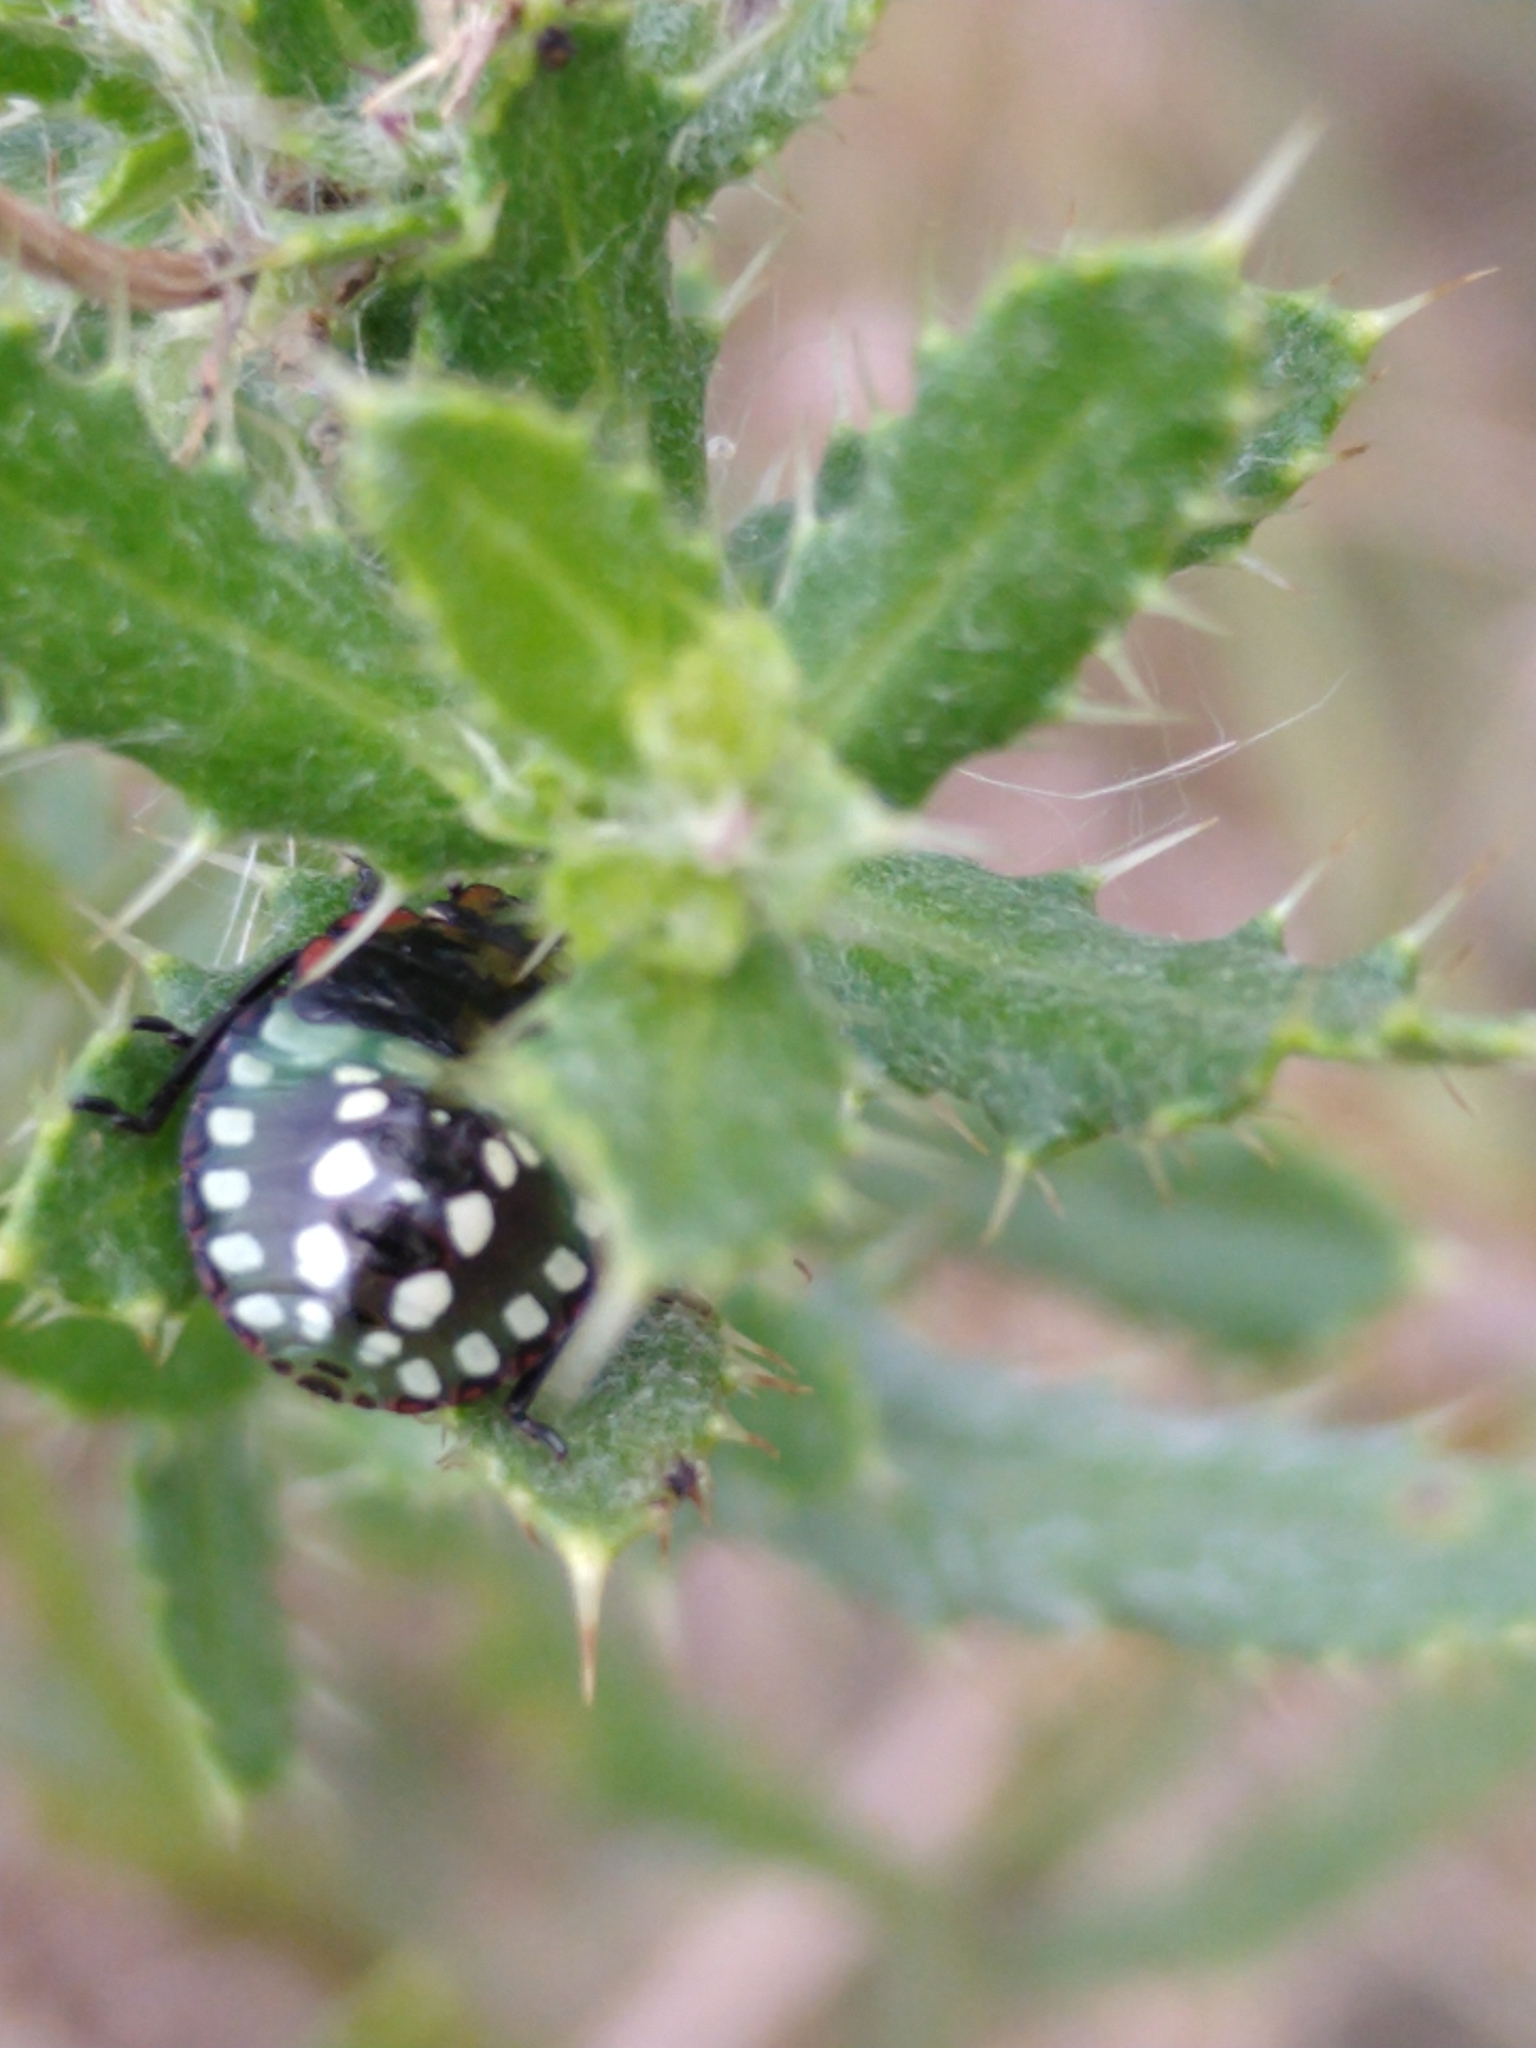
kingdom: Animalia
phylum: Arthropoda
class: Insecta
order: Hemiptera
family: Pentatomidae
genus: Nezara
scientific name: Nezara viridula
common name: Southern green stink bug
